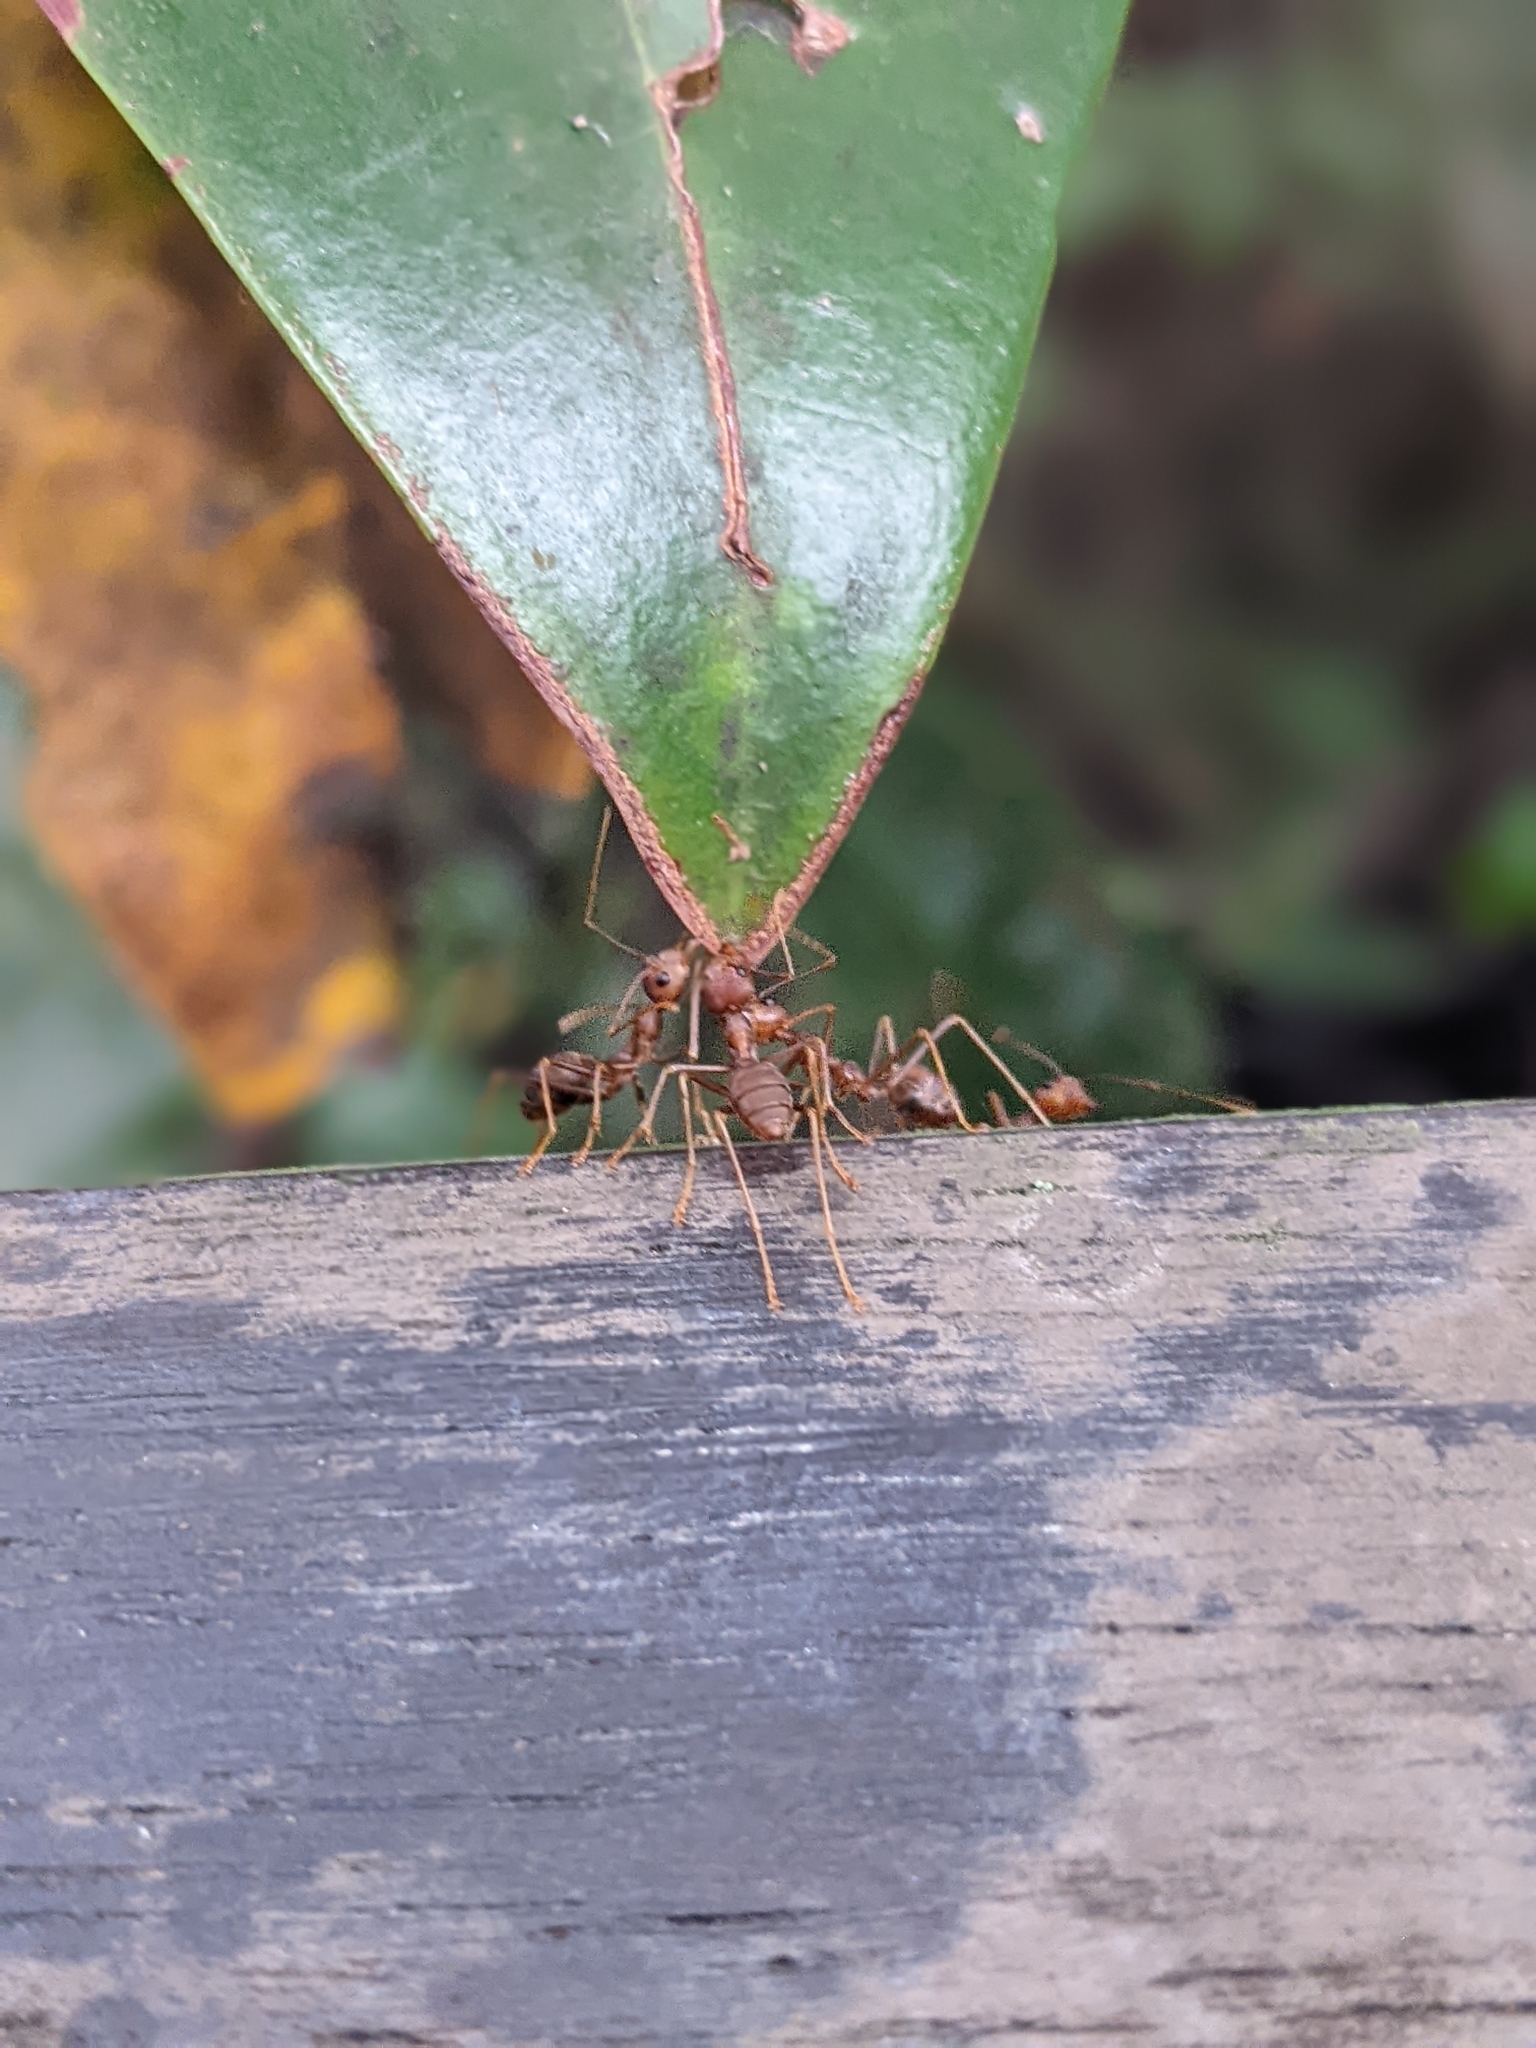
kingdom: Animalia
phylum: Arthropoda
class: Insecta
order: Hymenoptera
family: Formicidae
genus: Oecophylla
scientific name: Oecophylla smaragdina
